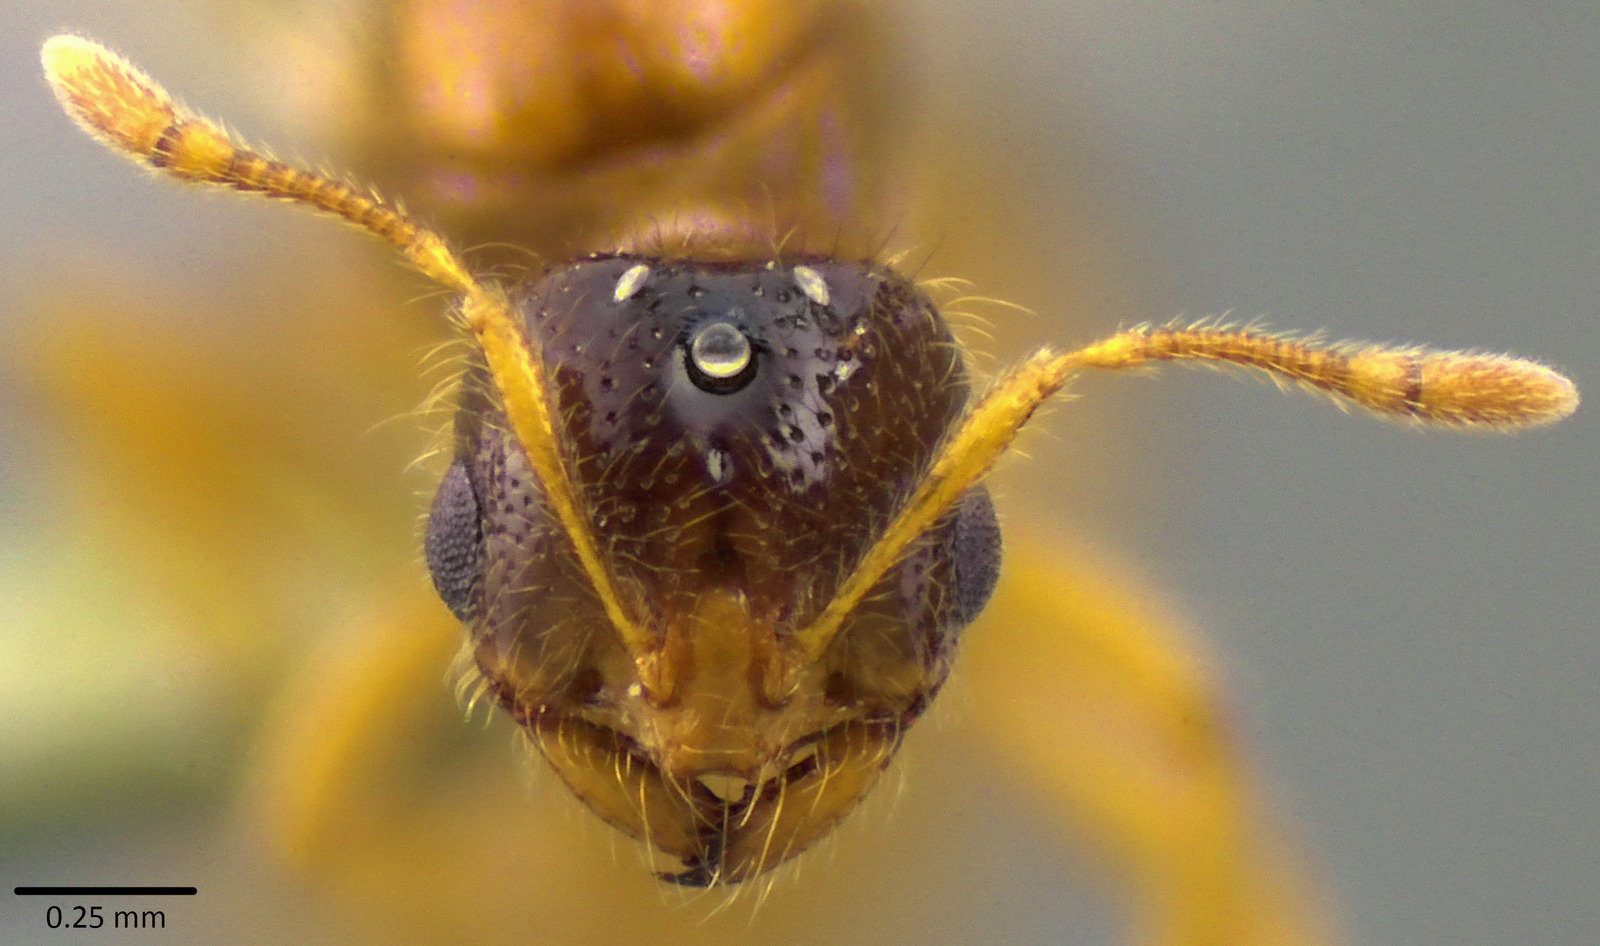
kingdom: Animalia
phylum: Arthropoda
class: Insecta
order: Hymenoptera
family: Formicidae
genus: Solenopsis
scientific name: Solenopsis molesta
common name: Thief ant
